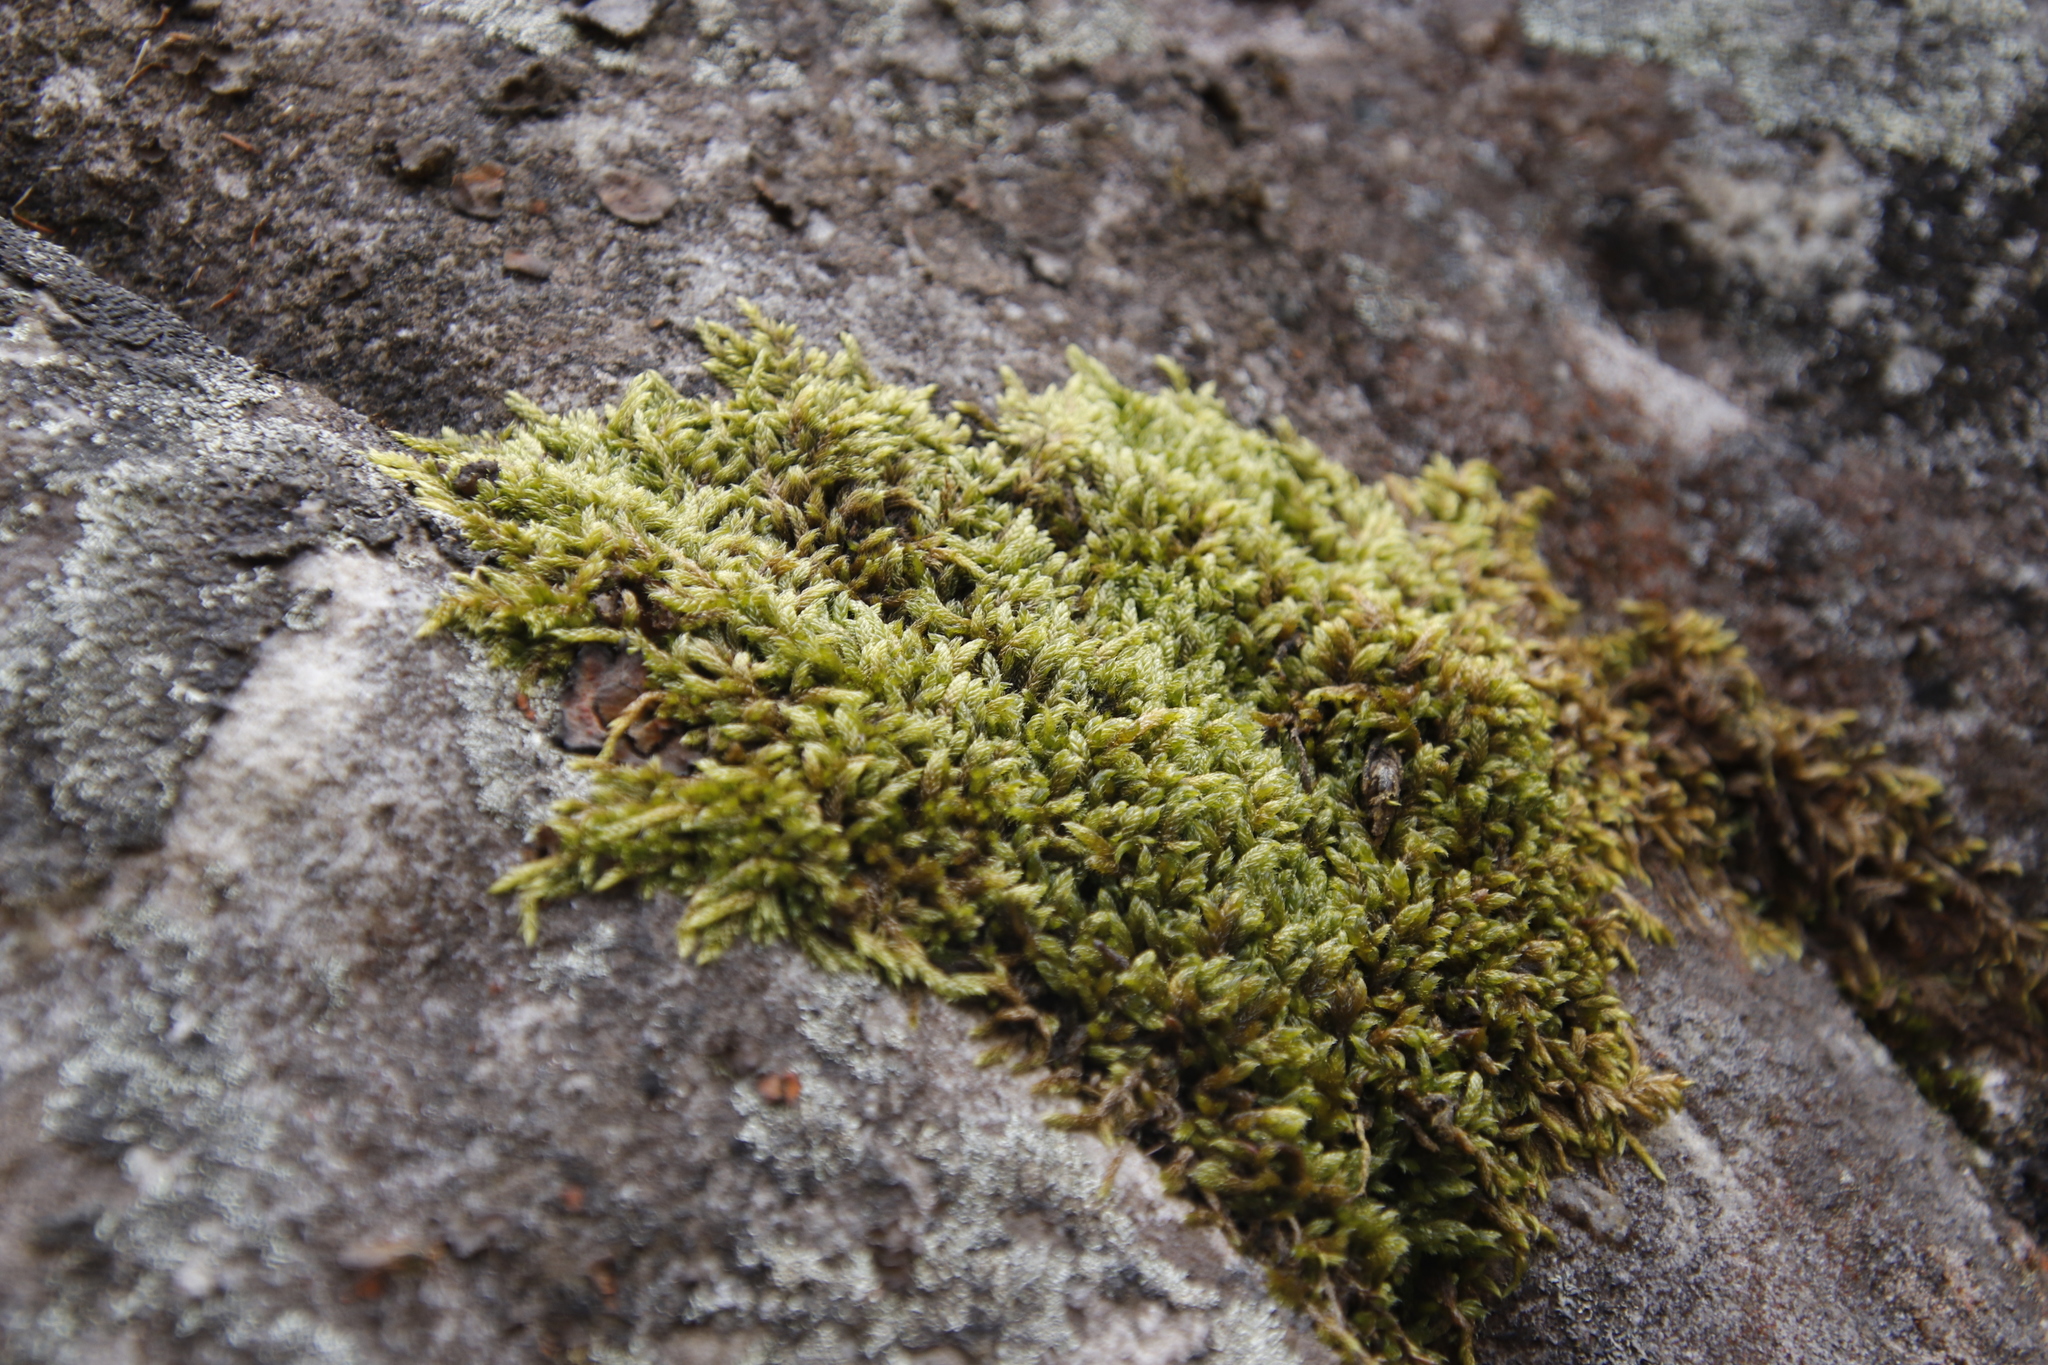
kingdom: Plantae
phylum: Bryophyta
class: Bryopsida
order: Hypnales
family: Hypnaceae
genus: Hypnum
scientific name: Hypnum cupressiforme
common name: Cypress-leaved plait-moss
